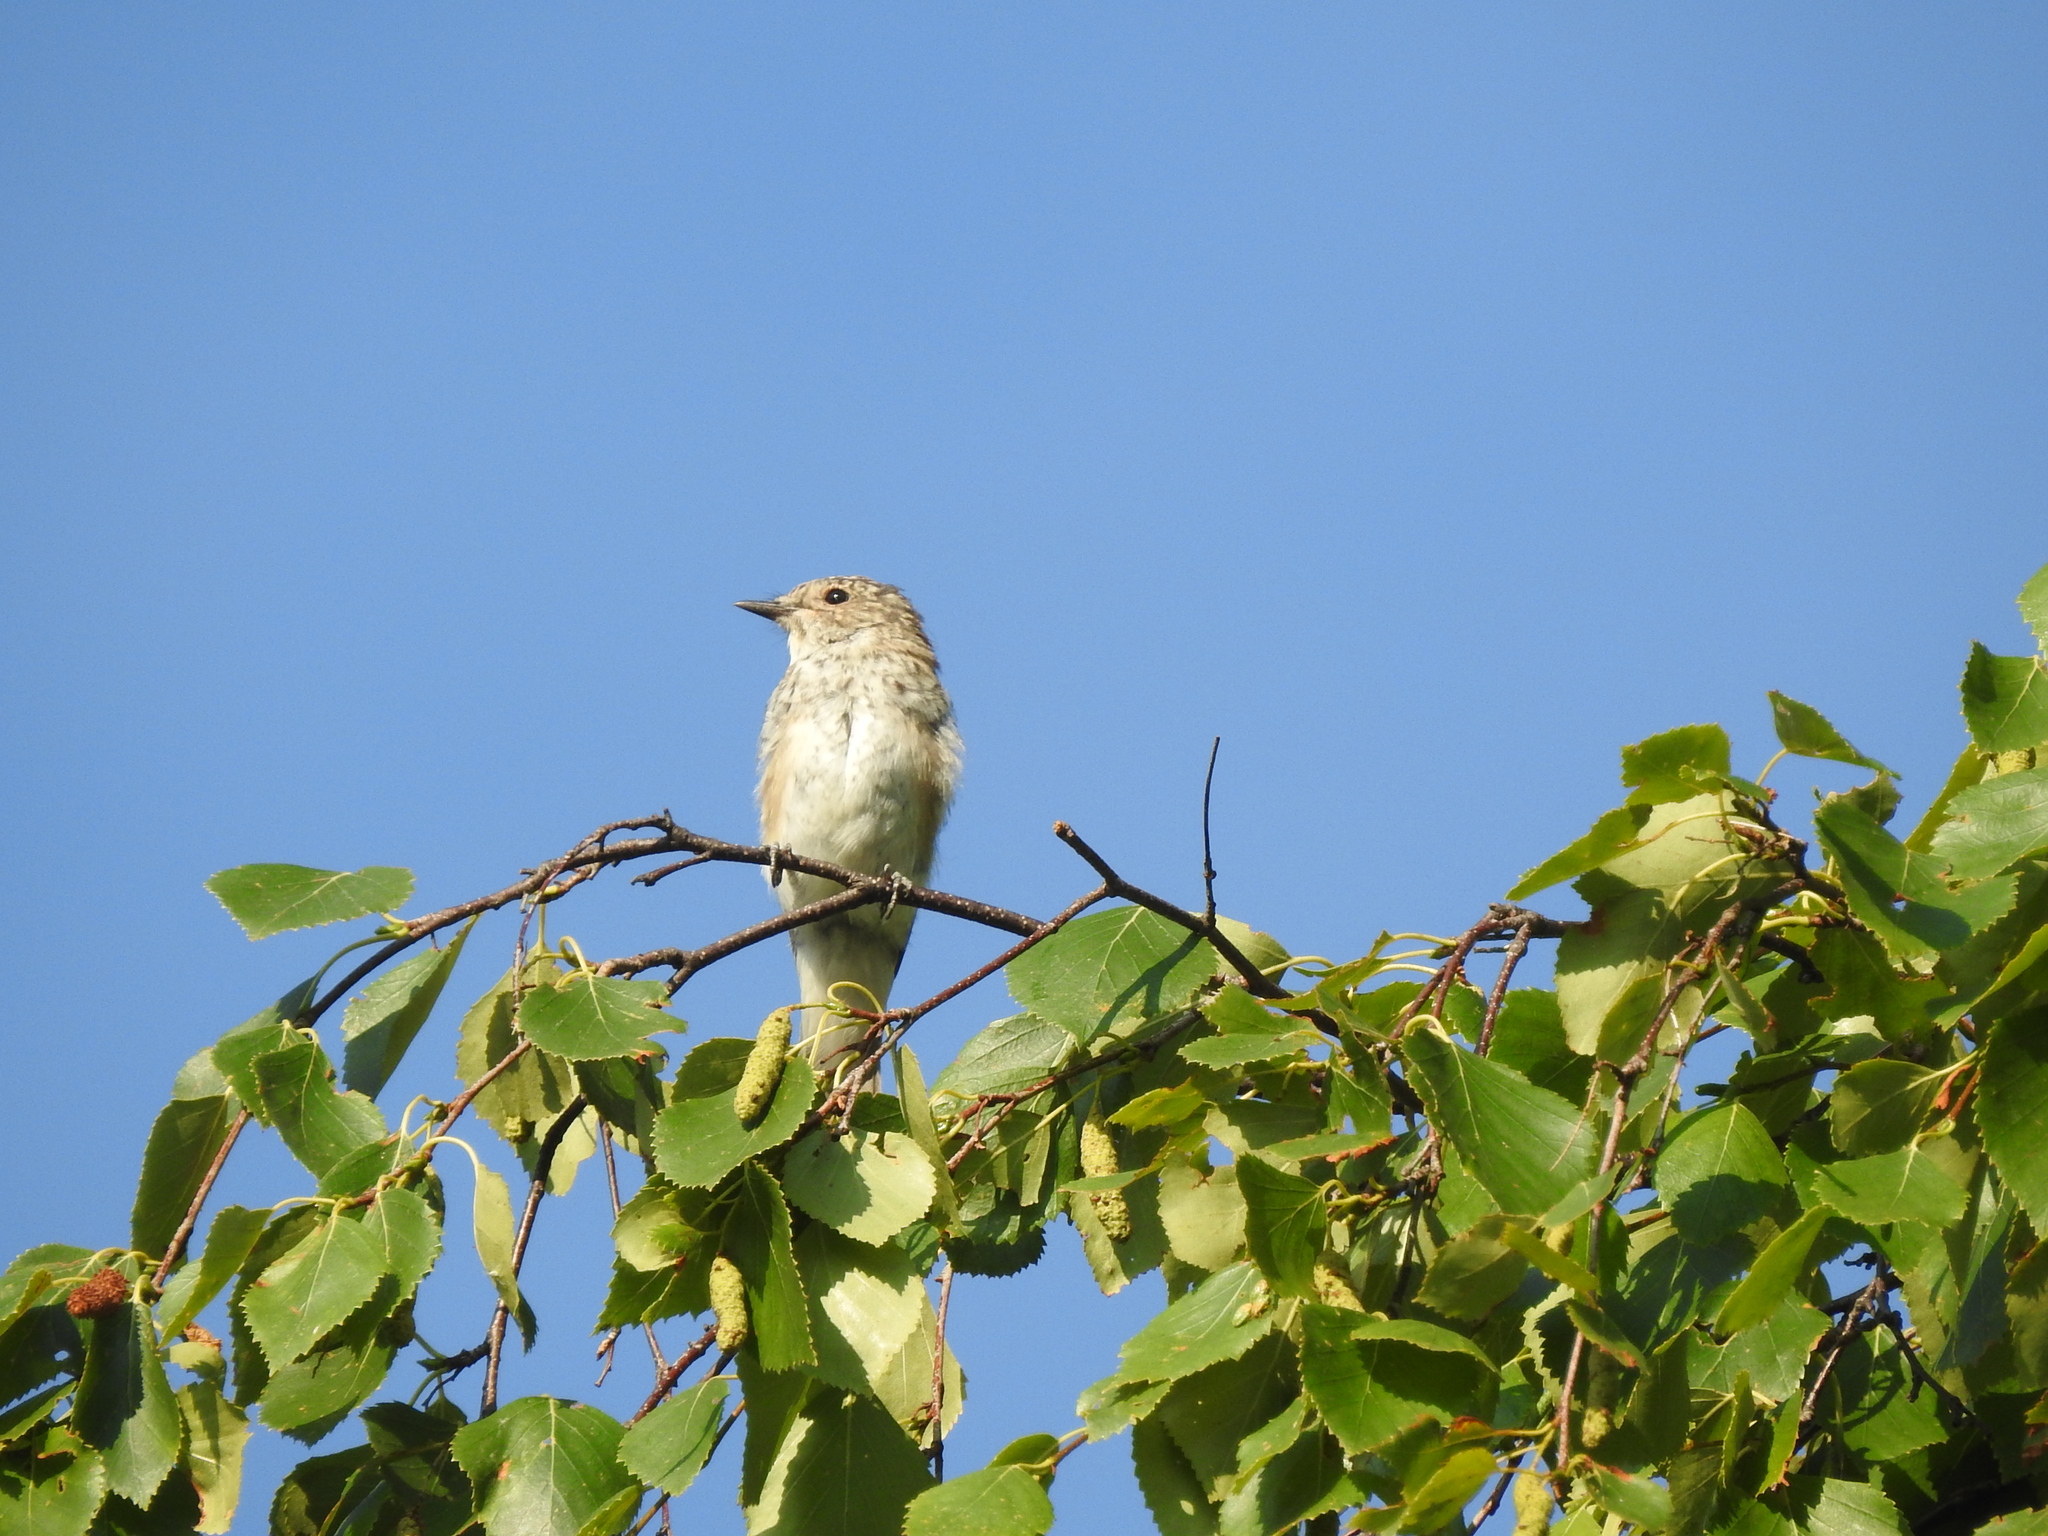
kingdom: Animalia
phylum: Chordata
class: Aves
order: Passeriformes
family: Muscicapidae
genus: Muscicapa
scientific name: Muscicapa striata
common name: Spotted flycatcher
